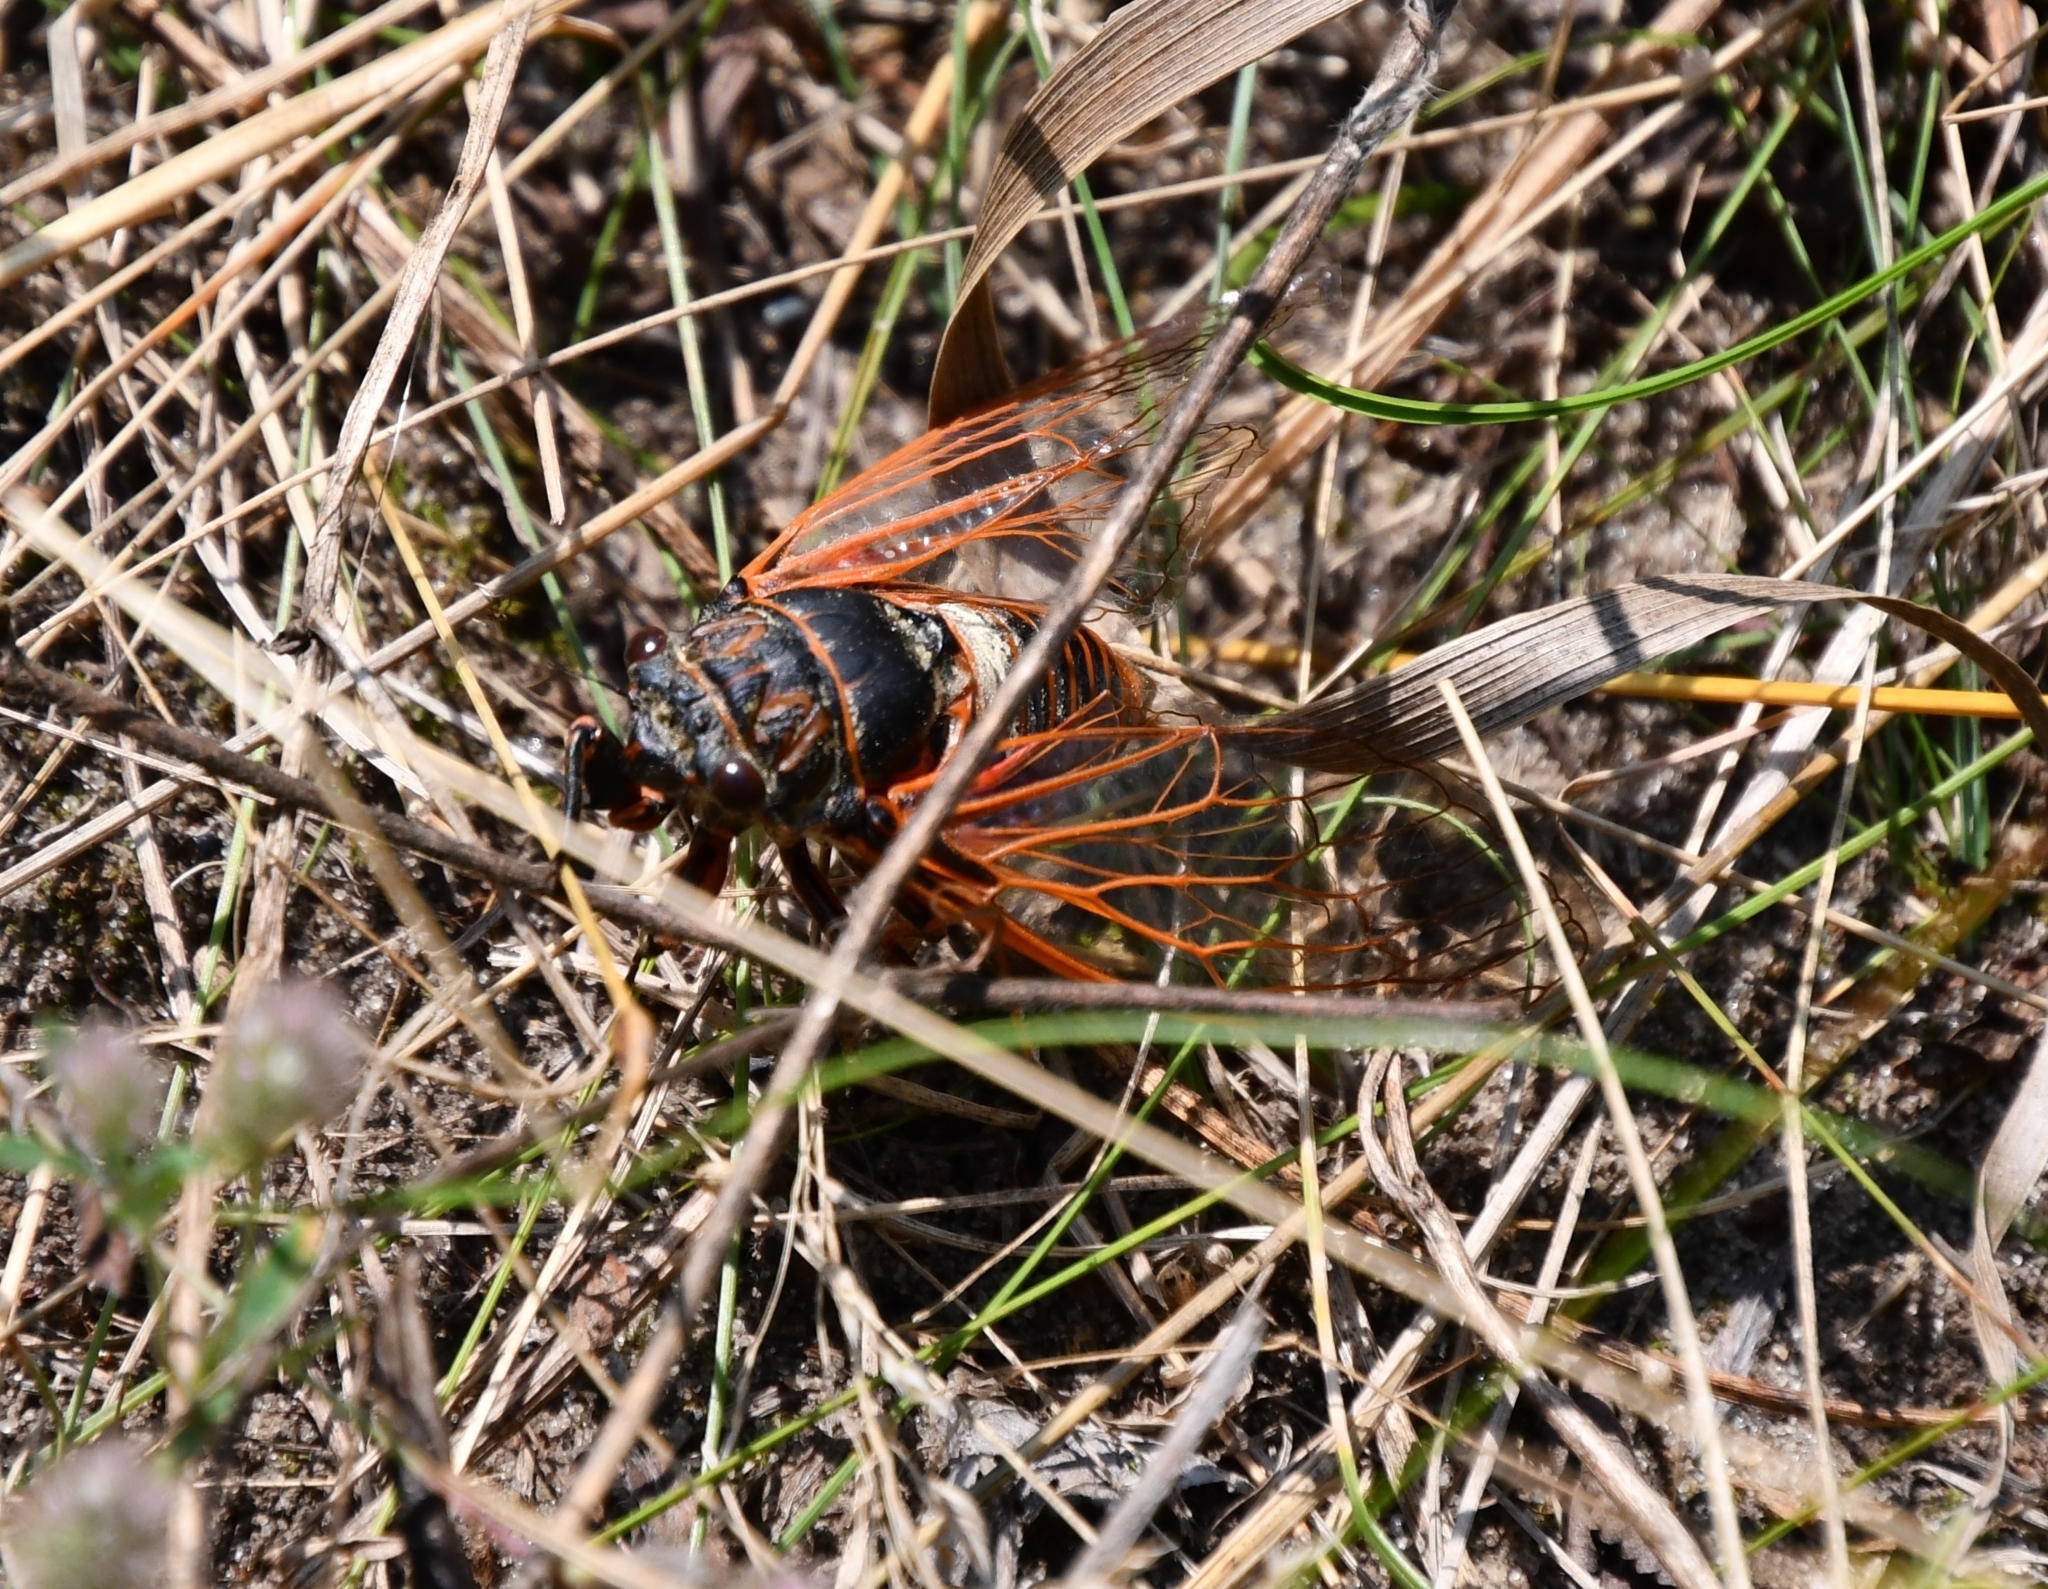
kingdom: Animalia
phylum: Arthropoda
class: Insecta
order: Hemiptera
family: Cicadidae
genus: Tibicina
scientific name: Tibicina haematodes
